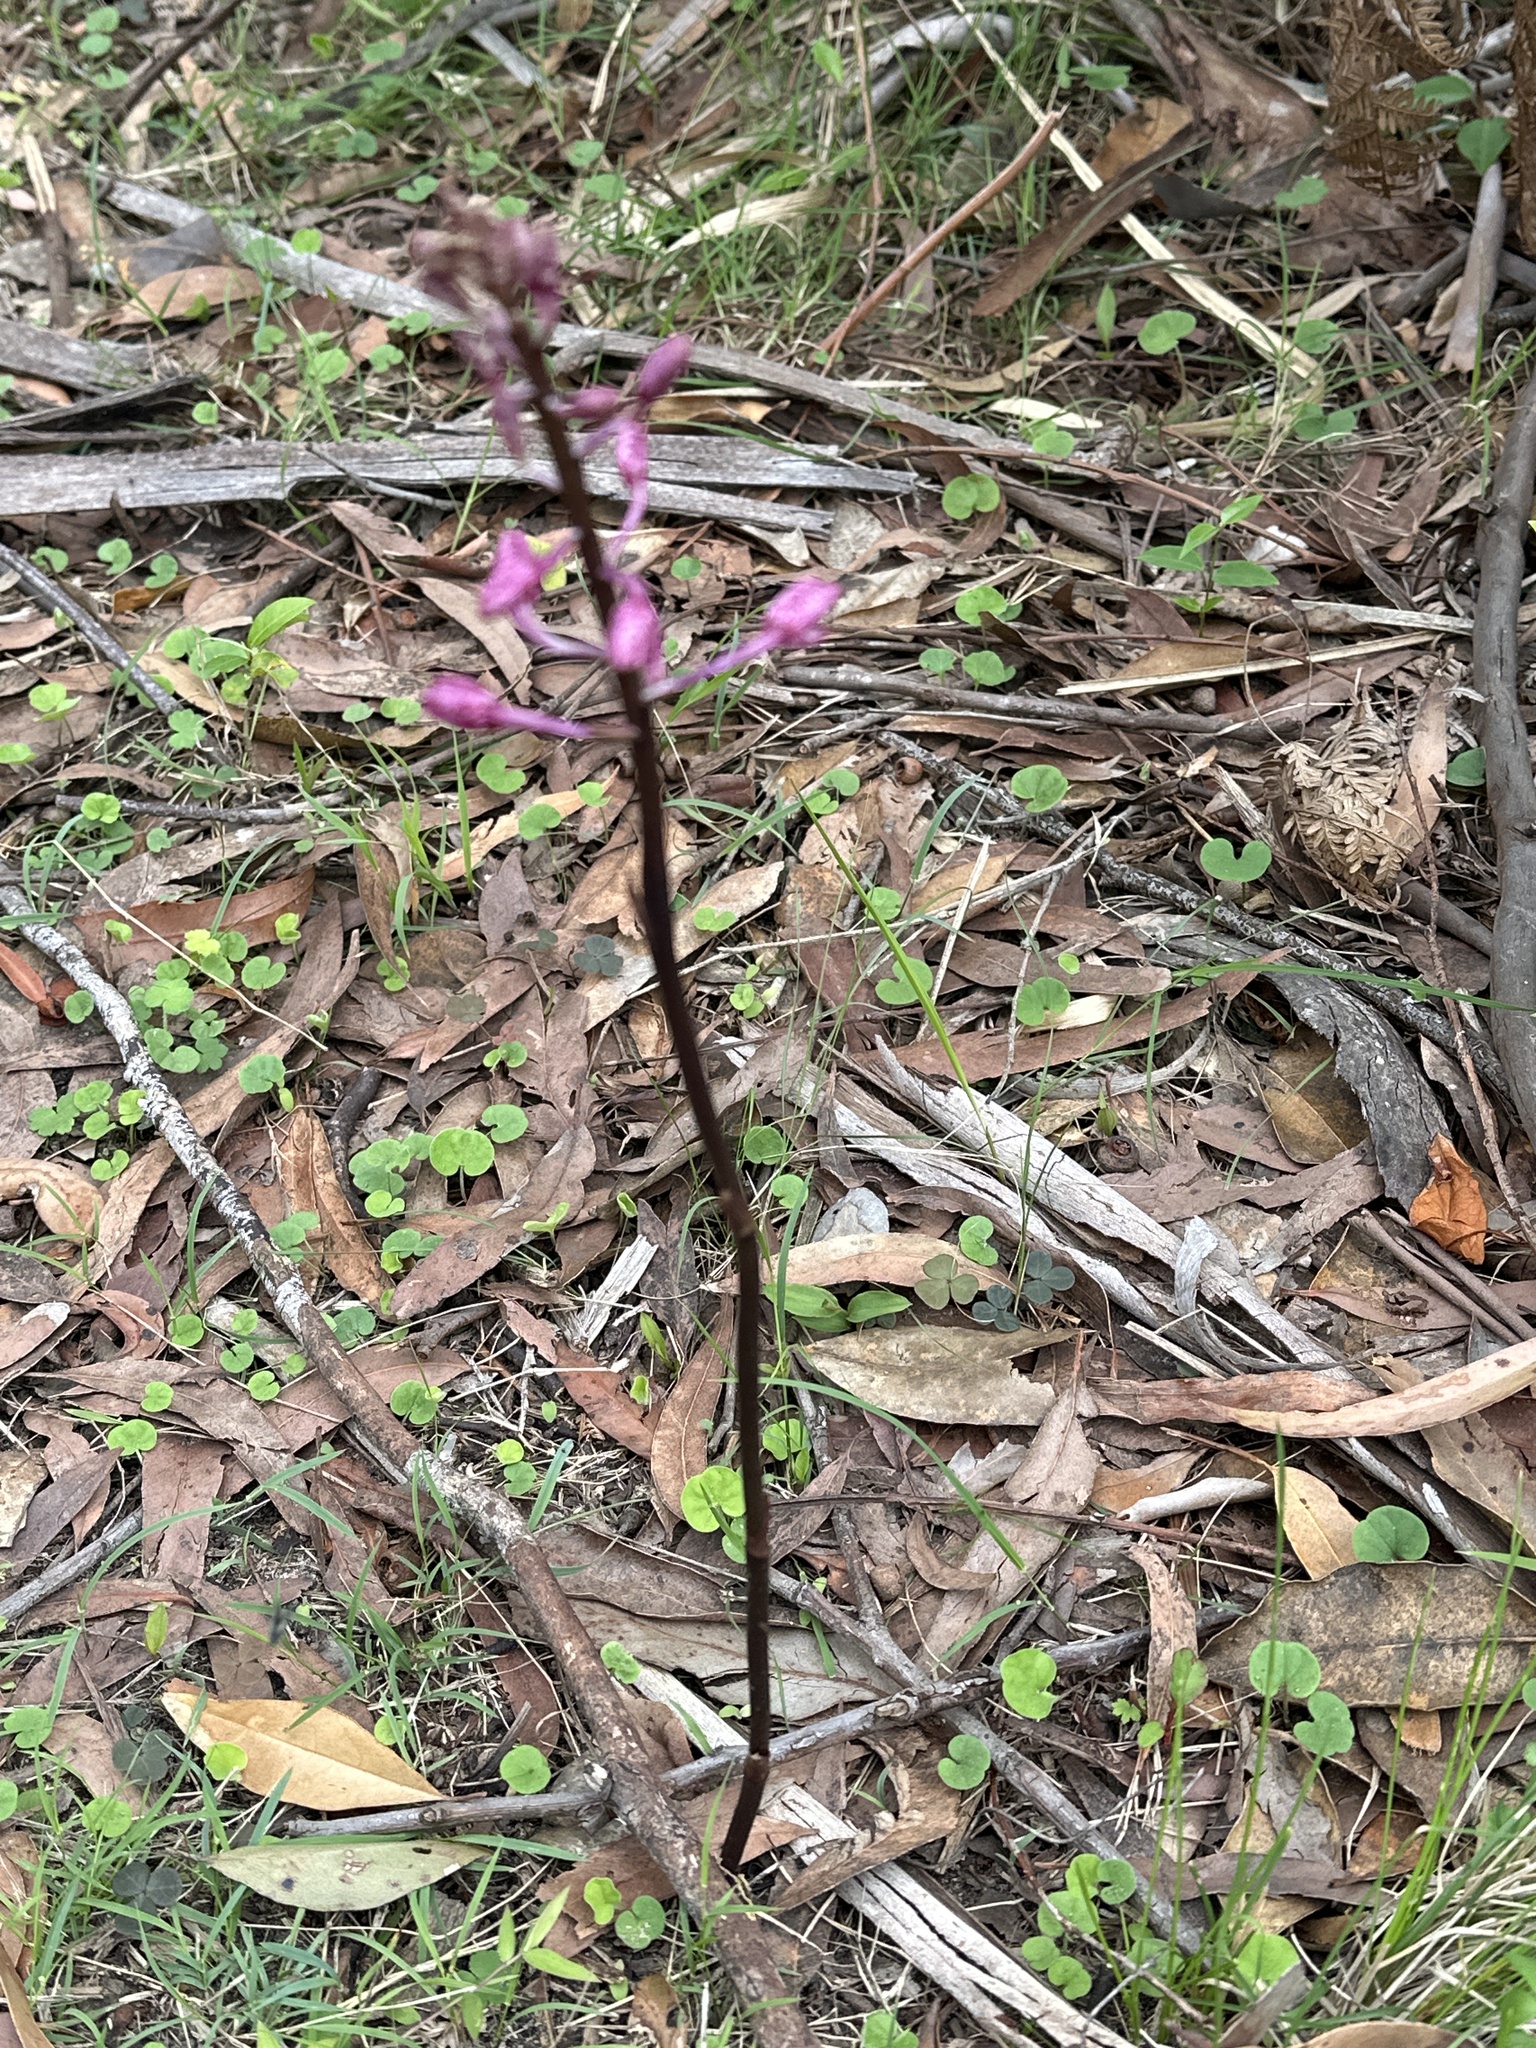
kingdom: Plantae
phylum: Tracheophyta
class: Liliopsida
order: Asparagales
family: Orchidaceae
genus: Dipodium
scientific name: Dipodium squamatum
